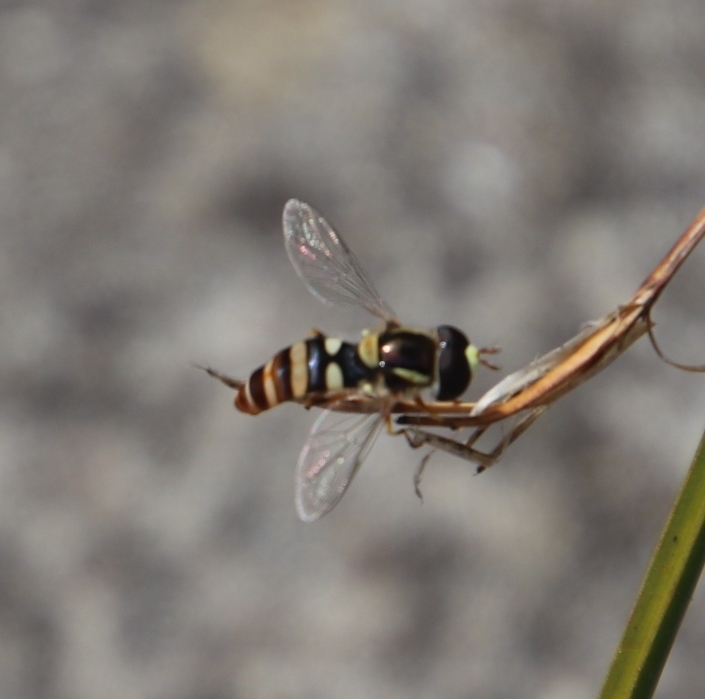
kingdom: Animalia
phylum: Arthropoda
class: Insecta
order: Diptera
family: Syrphidae
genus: Ischiodon
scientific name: Ischiodon aegyptius
